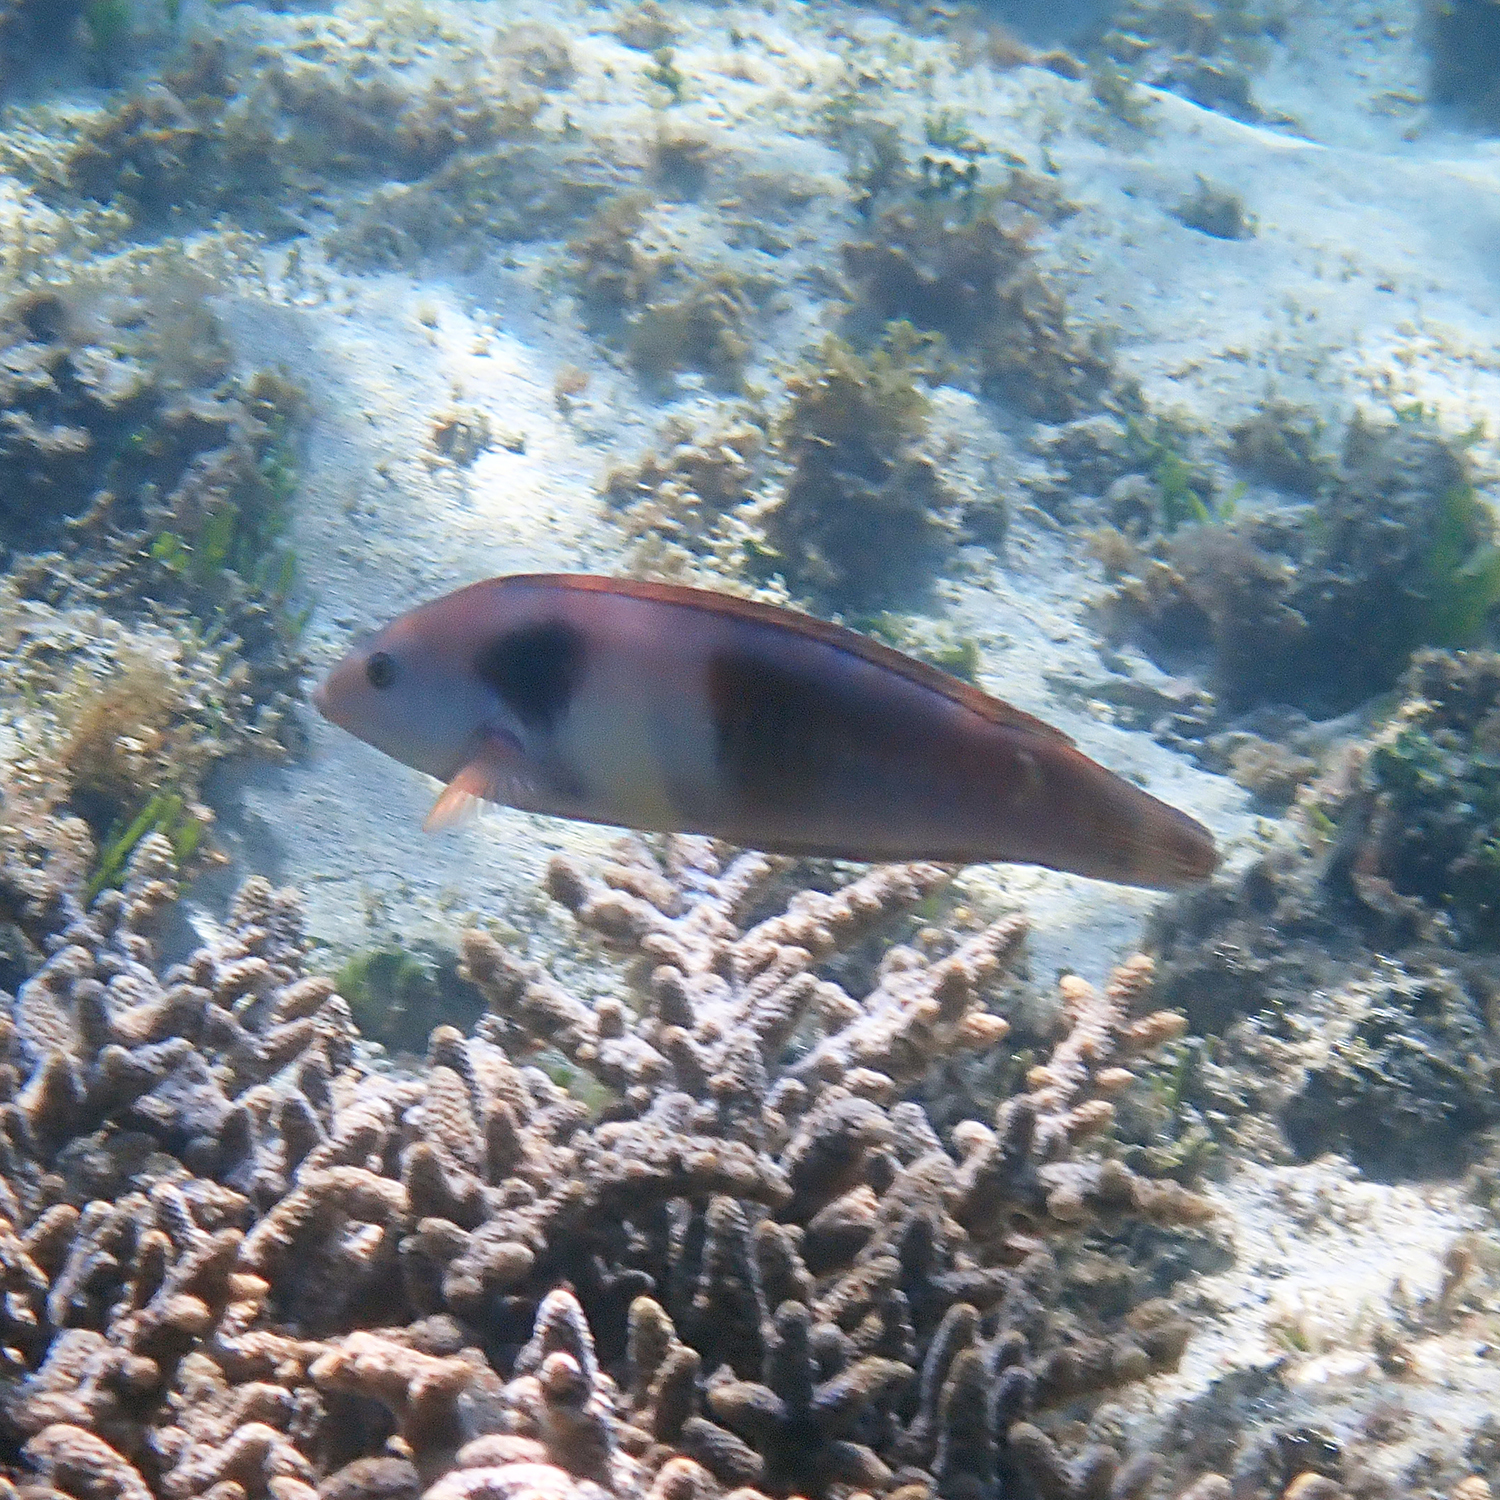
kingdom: Animalia
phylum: Chordata
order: Perciformes
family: Labridae
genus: Coris
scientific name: Coris sandeyeri
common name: Sandager's wrasse
